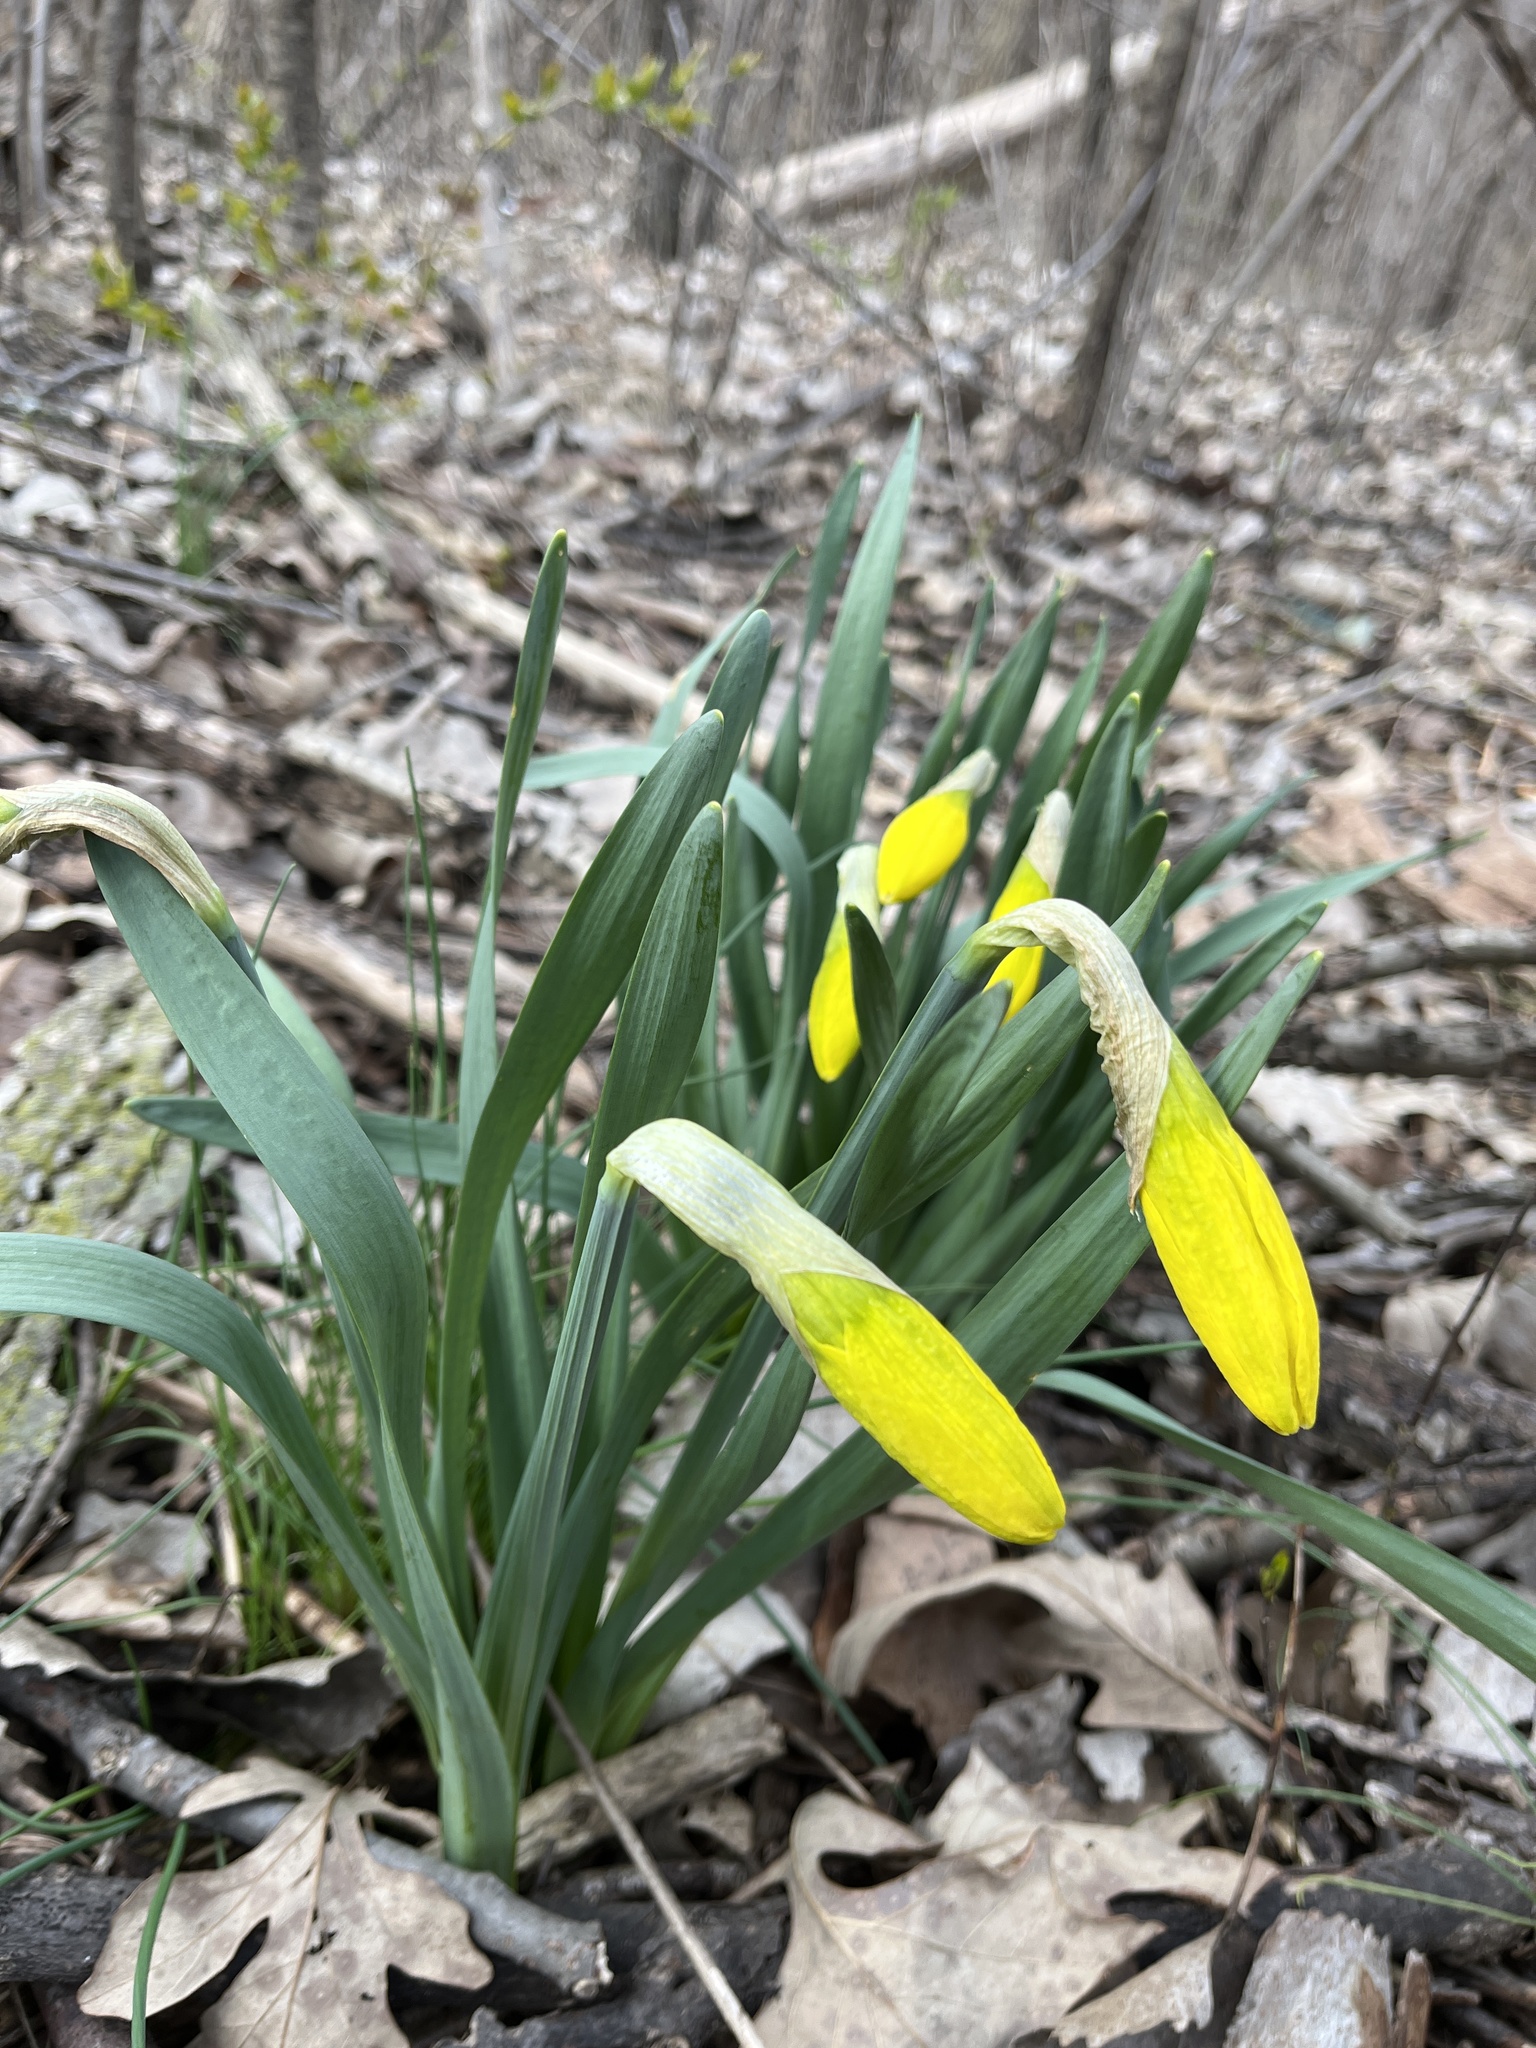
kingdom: Plantae
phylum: Tracheophyta
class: Liliopsida
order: Asparagales
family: Amaryllidaceae
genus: Narcissus
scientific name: Narcissus pseudonarcissus
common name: Daffodil
